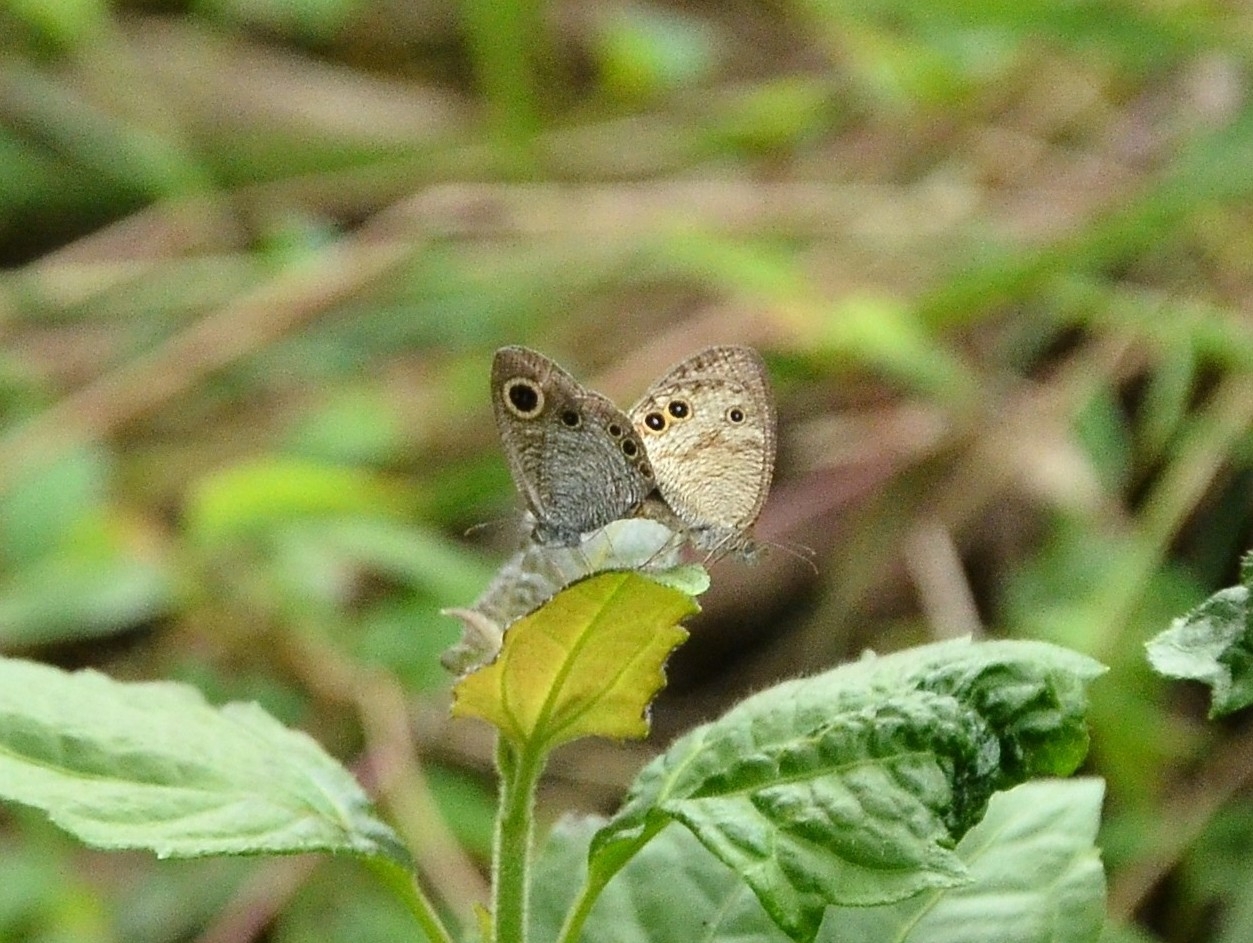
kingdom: Animalia
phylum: Arthropoda
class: Insecta
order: Lepidoptera
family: Nymphalidae
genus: Ypthima
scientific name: Ypthima huebneri
